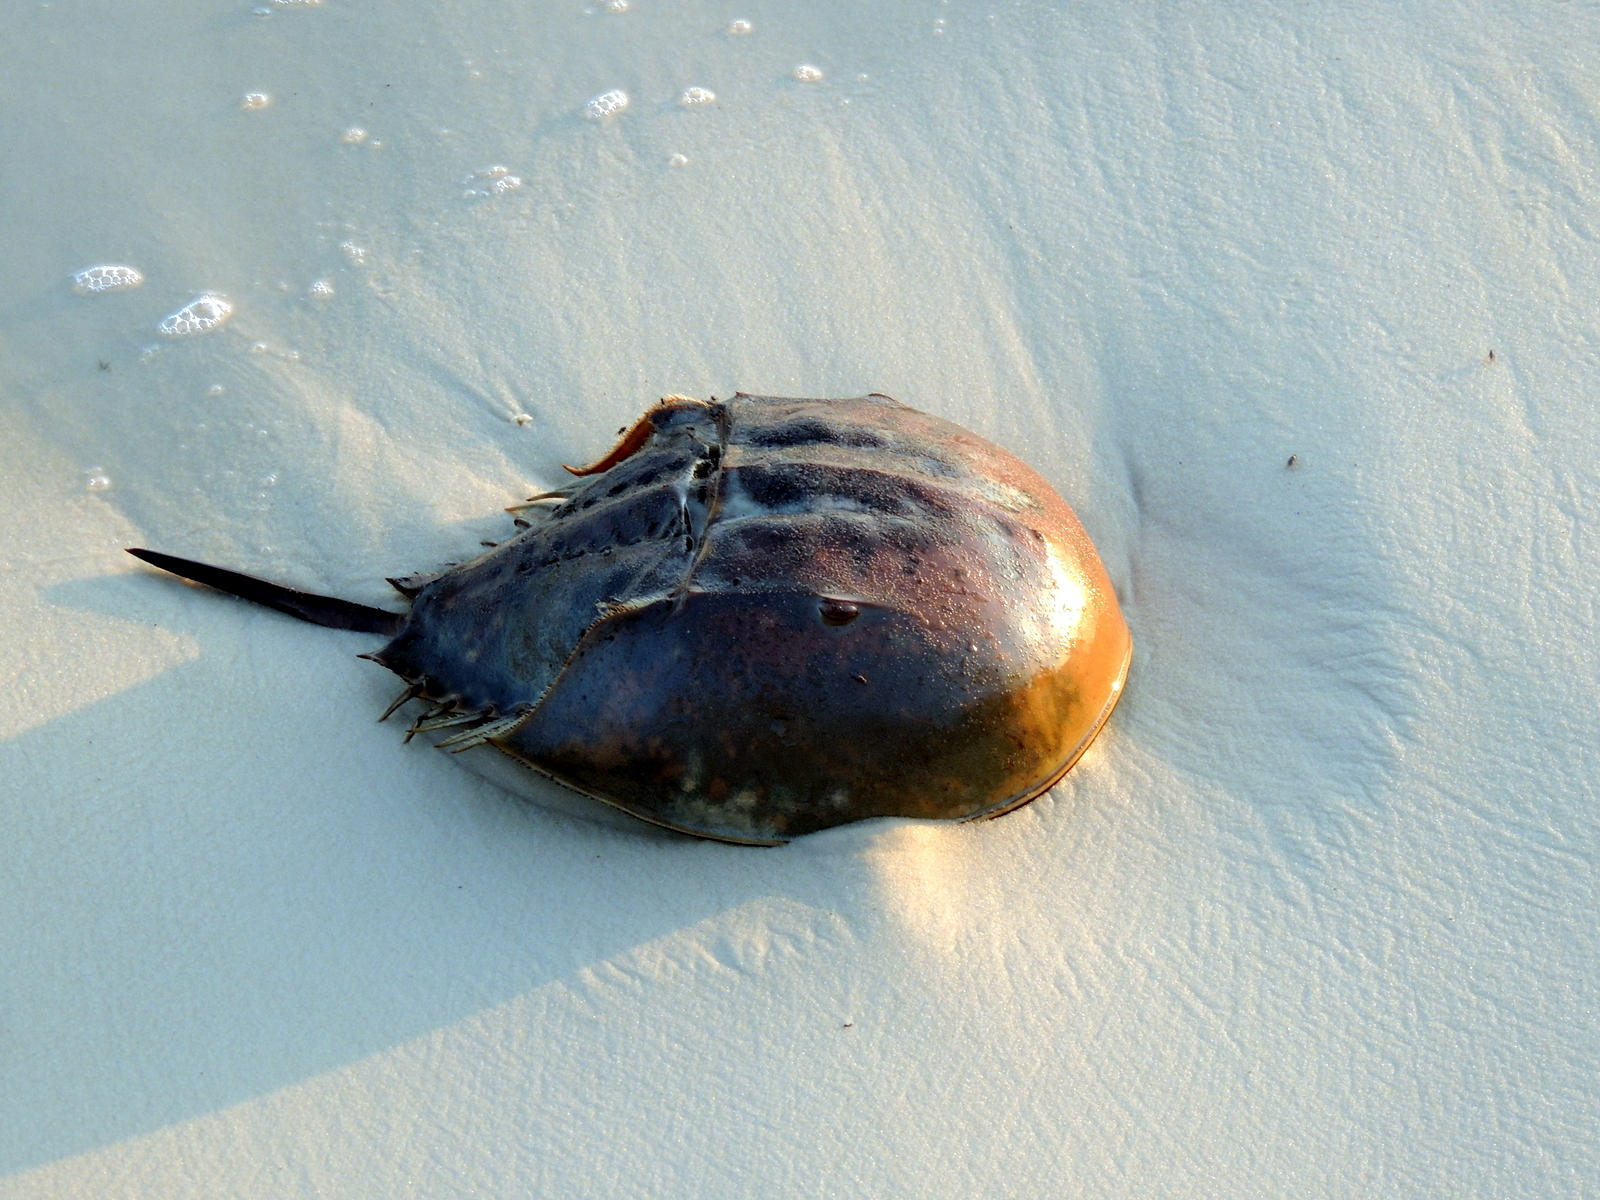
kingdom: Animalia
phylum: Arthropoda
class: Merostomata
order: Xiphosurida
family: Limulidae
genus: Limulus
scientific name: Limulus polyphemus
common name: Horseshoe crab
